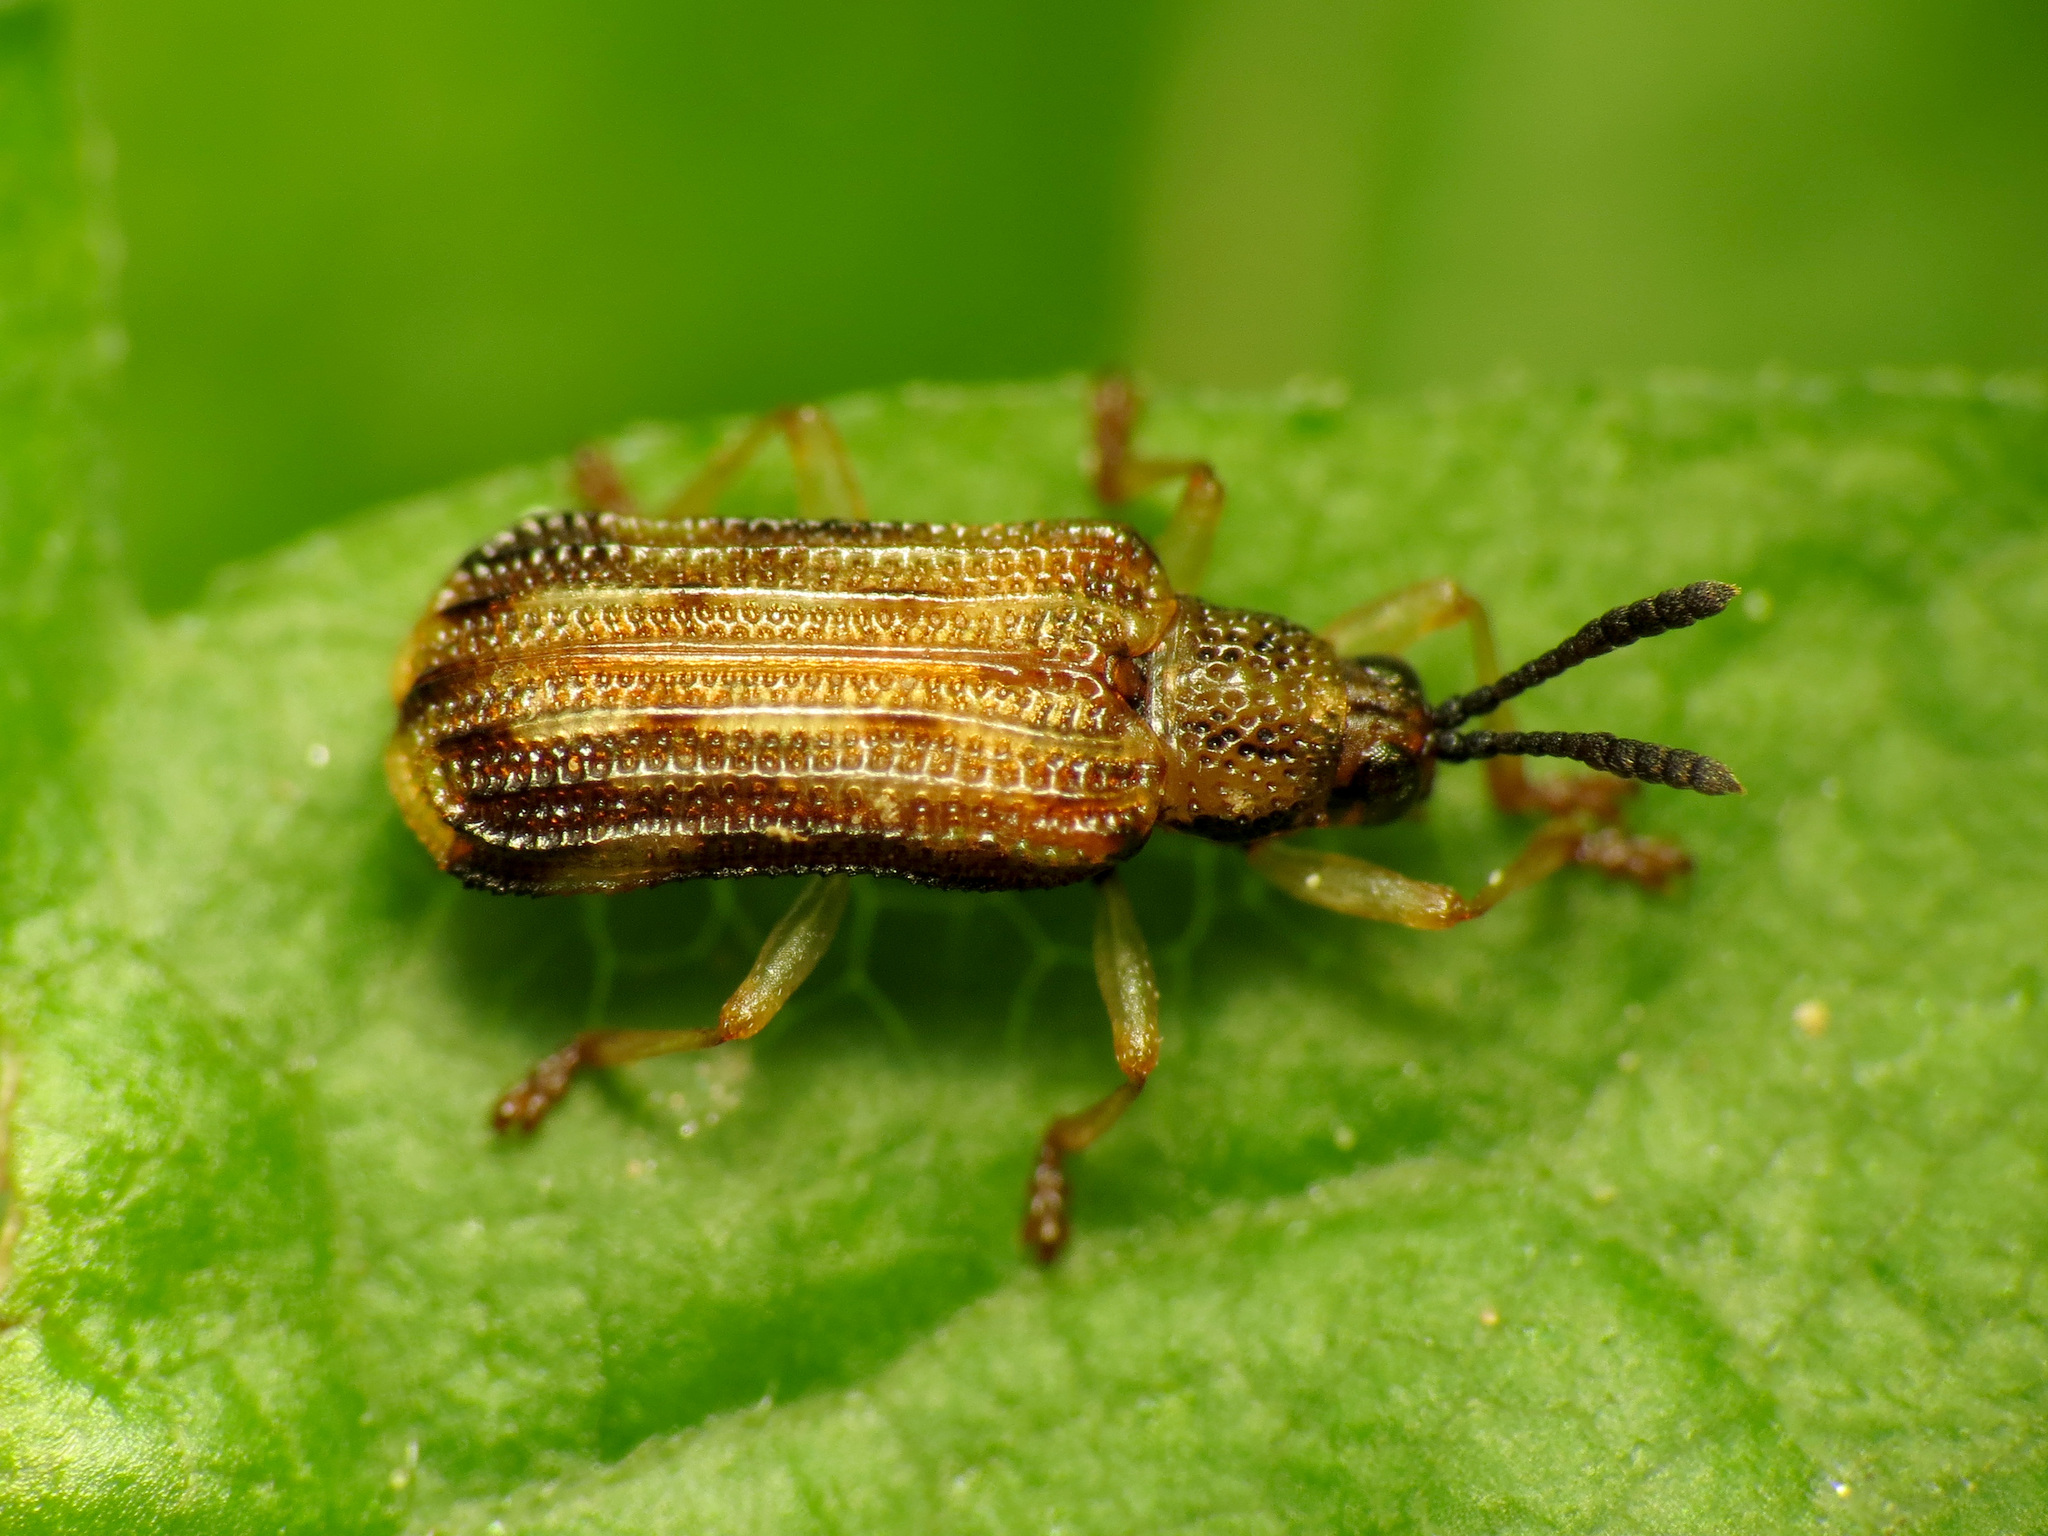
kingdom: Animalia
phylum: Arthropoda
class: Insecta
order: Coleoptera
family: Chrysomelidae
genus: Sumitrosis
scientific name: Sumitrosis inaequalis
